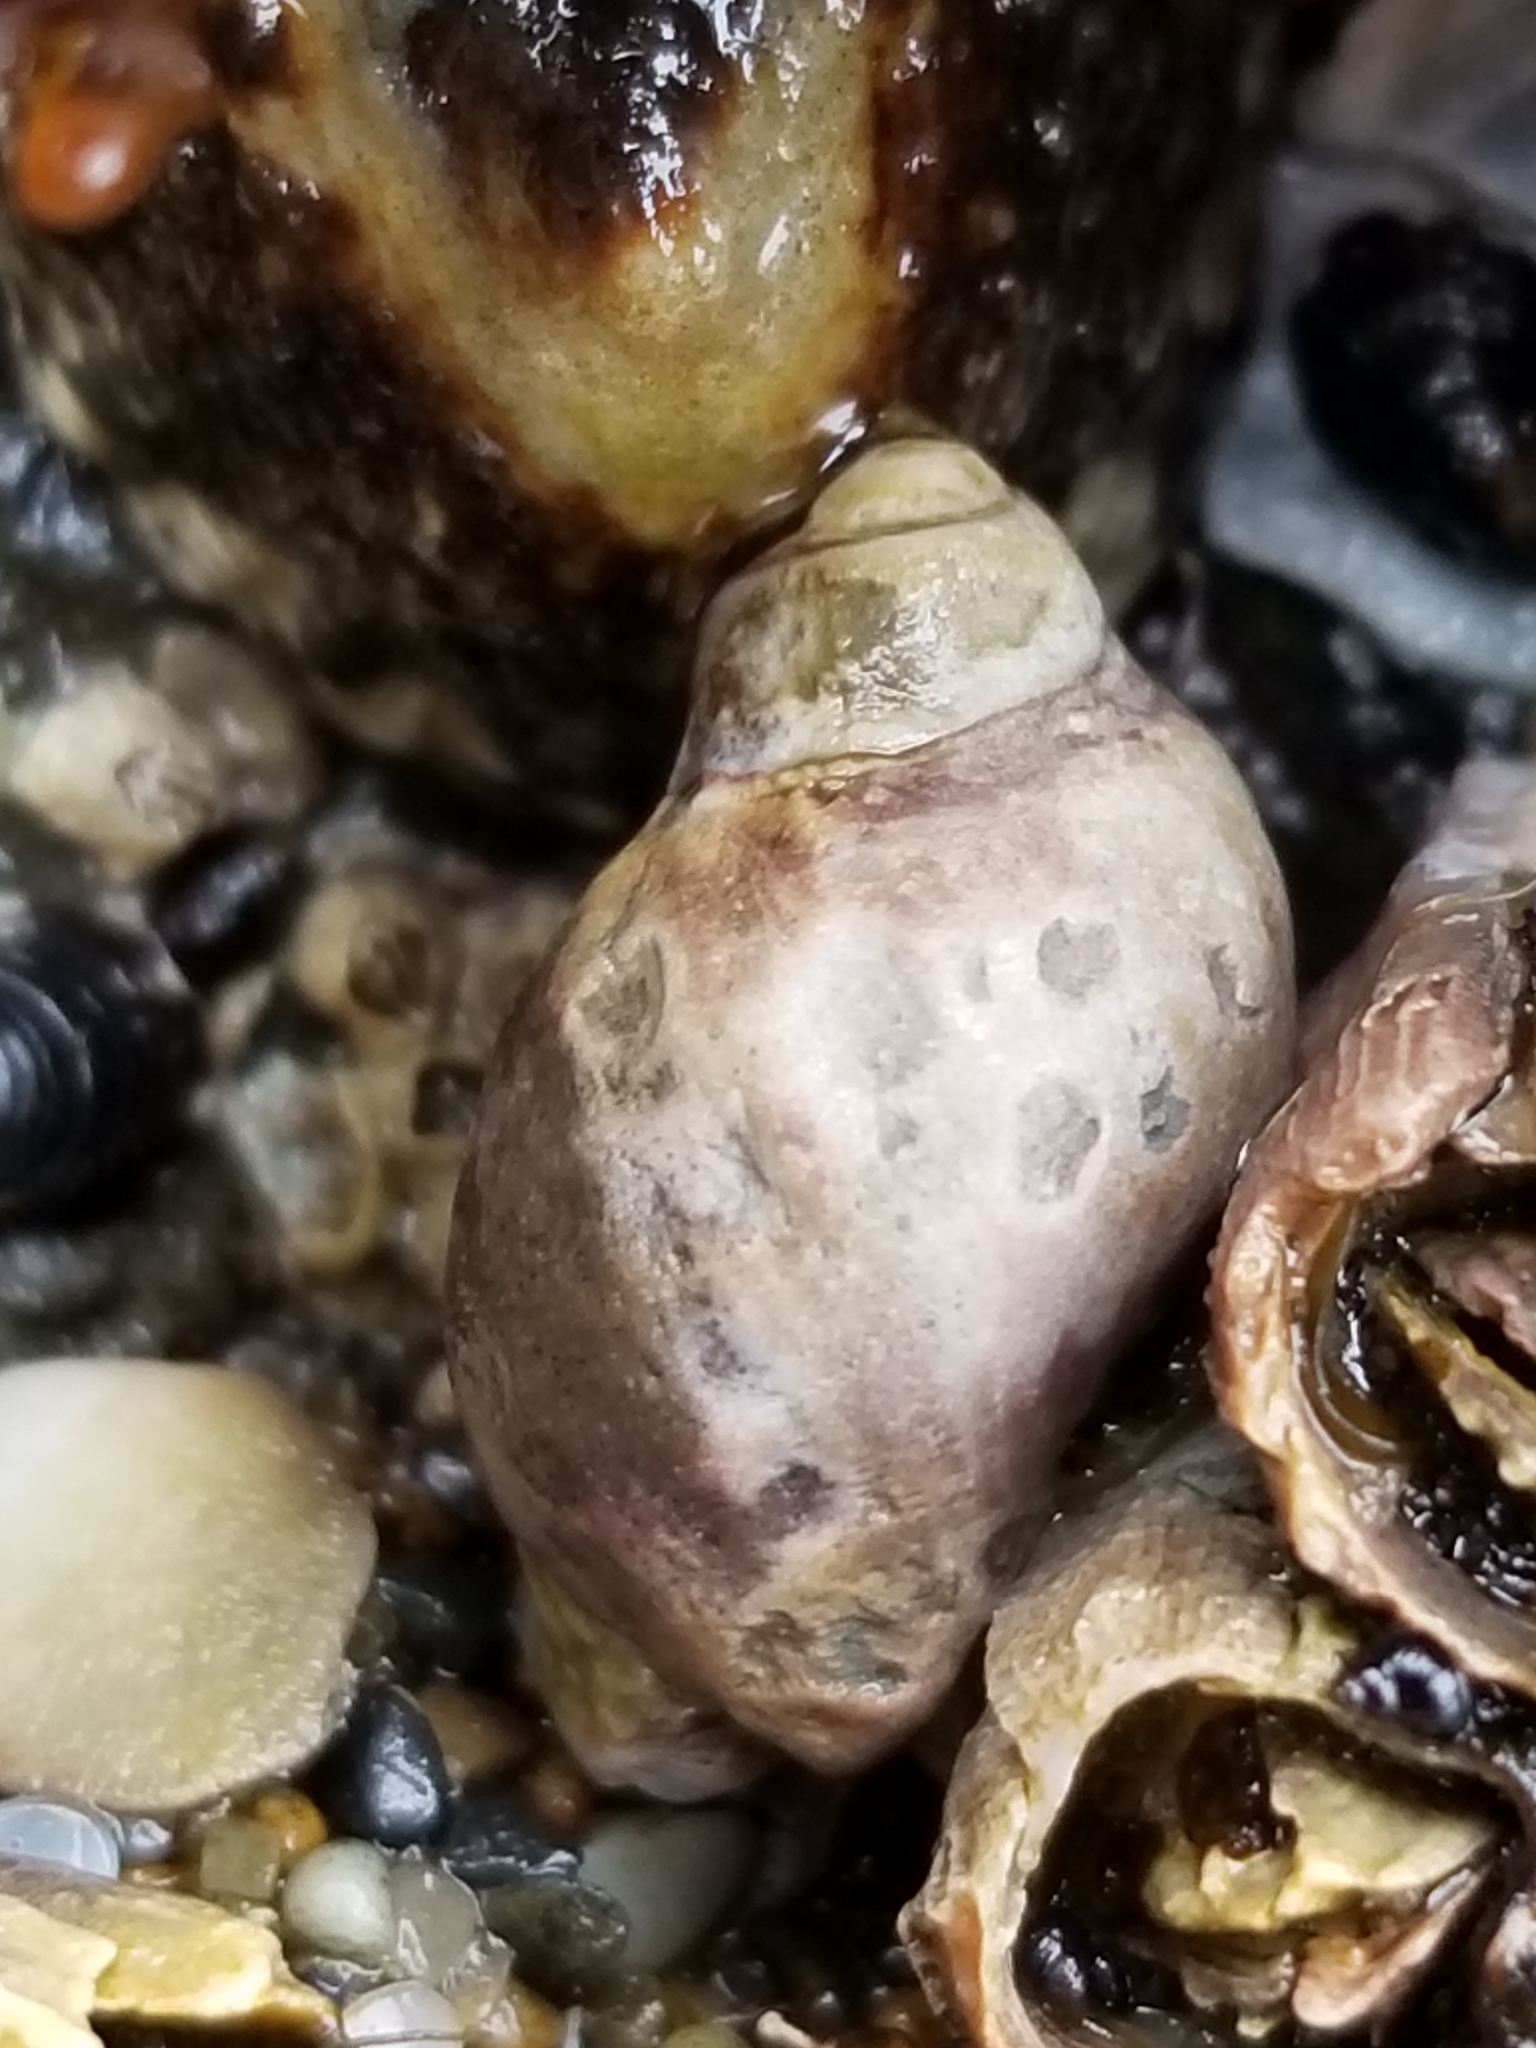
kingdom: Animalia
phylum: Mollusca
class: Gastropoda
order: Neogastropoda
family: Muricidae
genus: Nucella
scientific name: Nucella lamellosa
